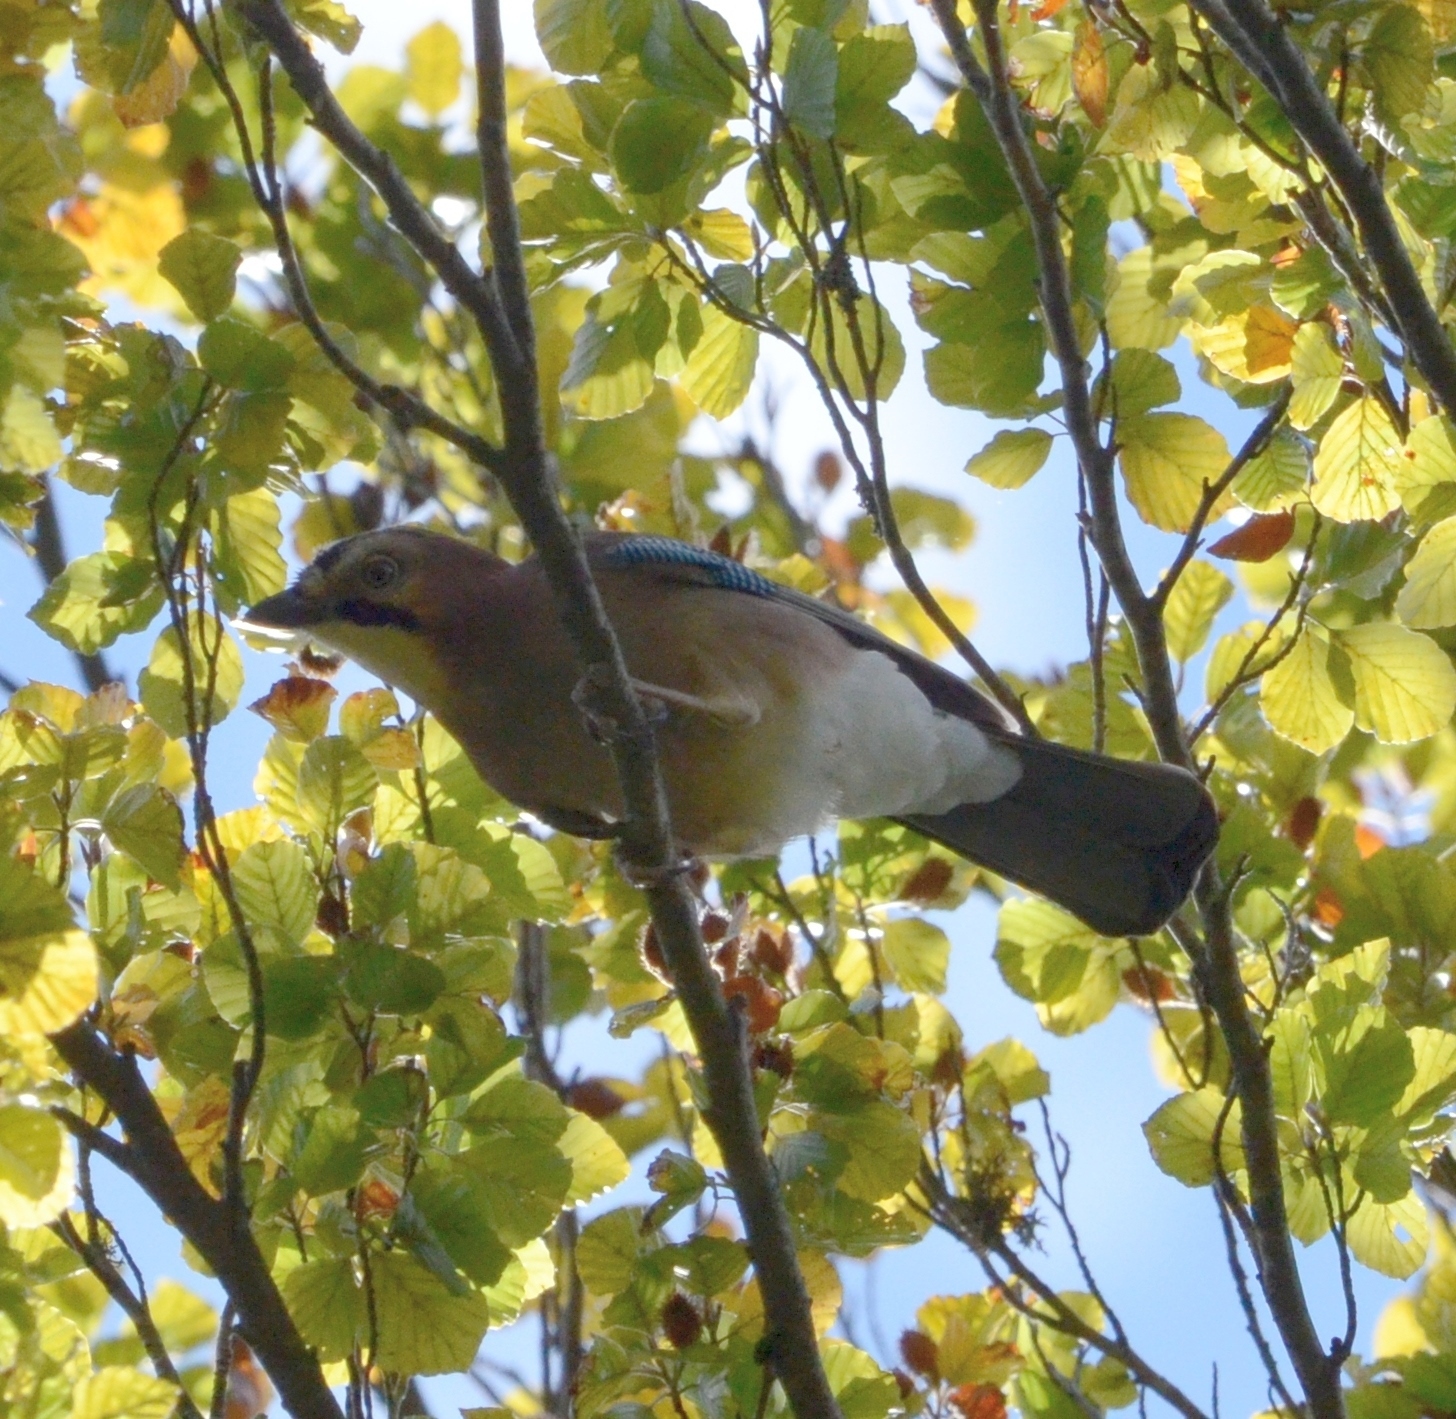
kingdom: Animalia
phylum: Chordata
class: Aves
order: Passeriformes
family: Corvidae
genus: Garrulus
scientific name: Garrulus glandarius
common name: Eurasian jay
